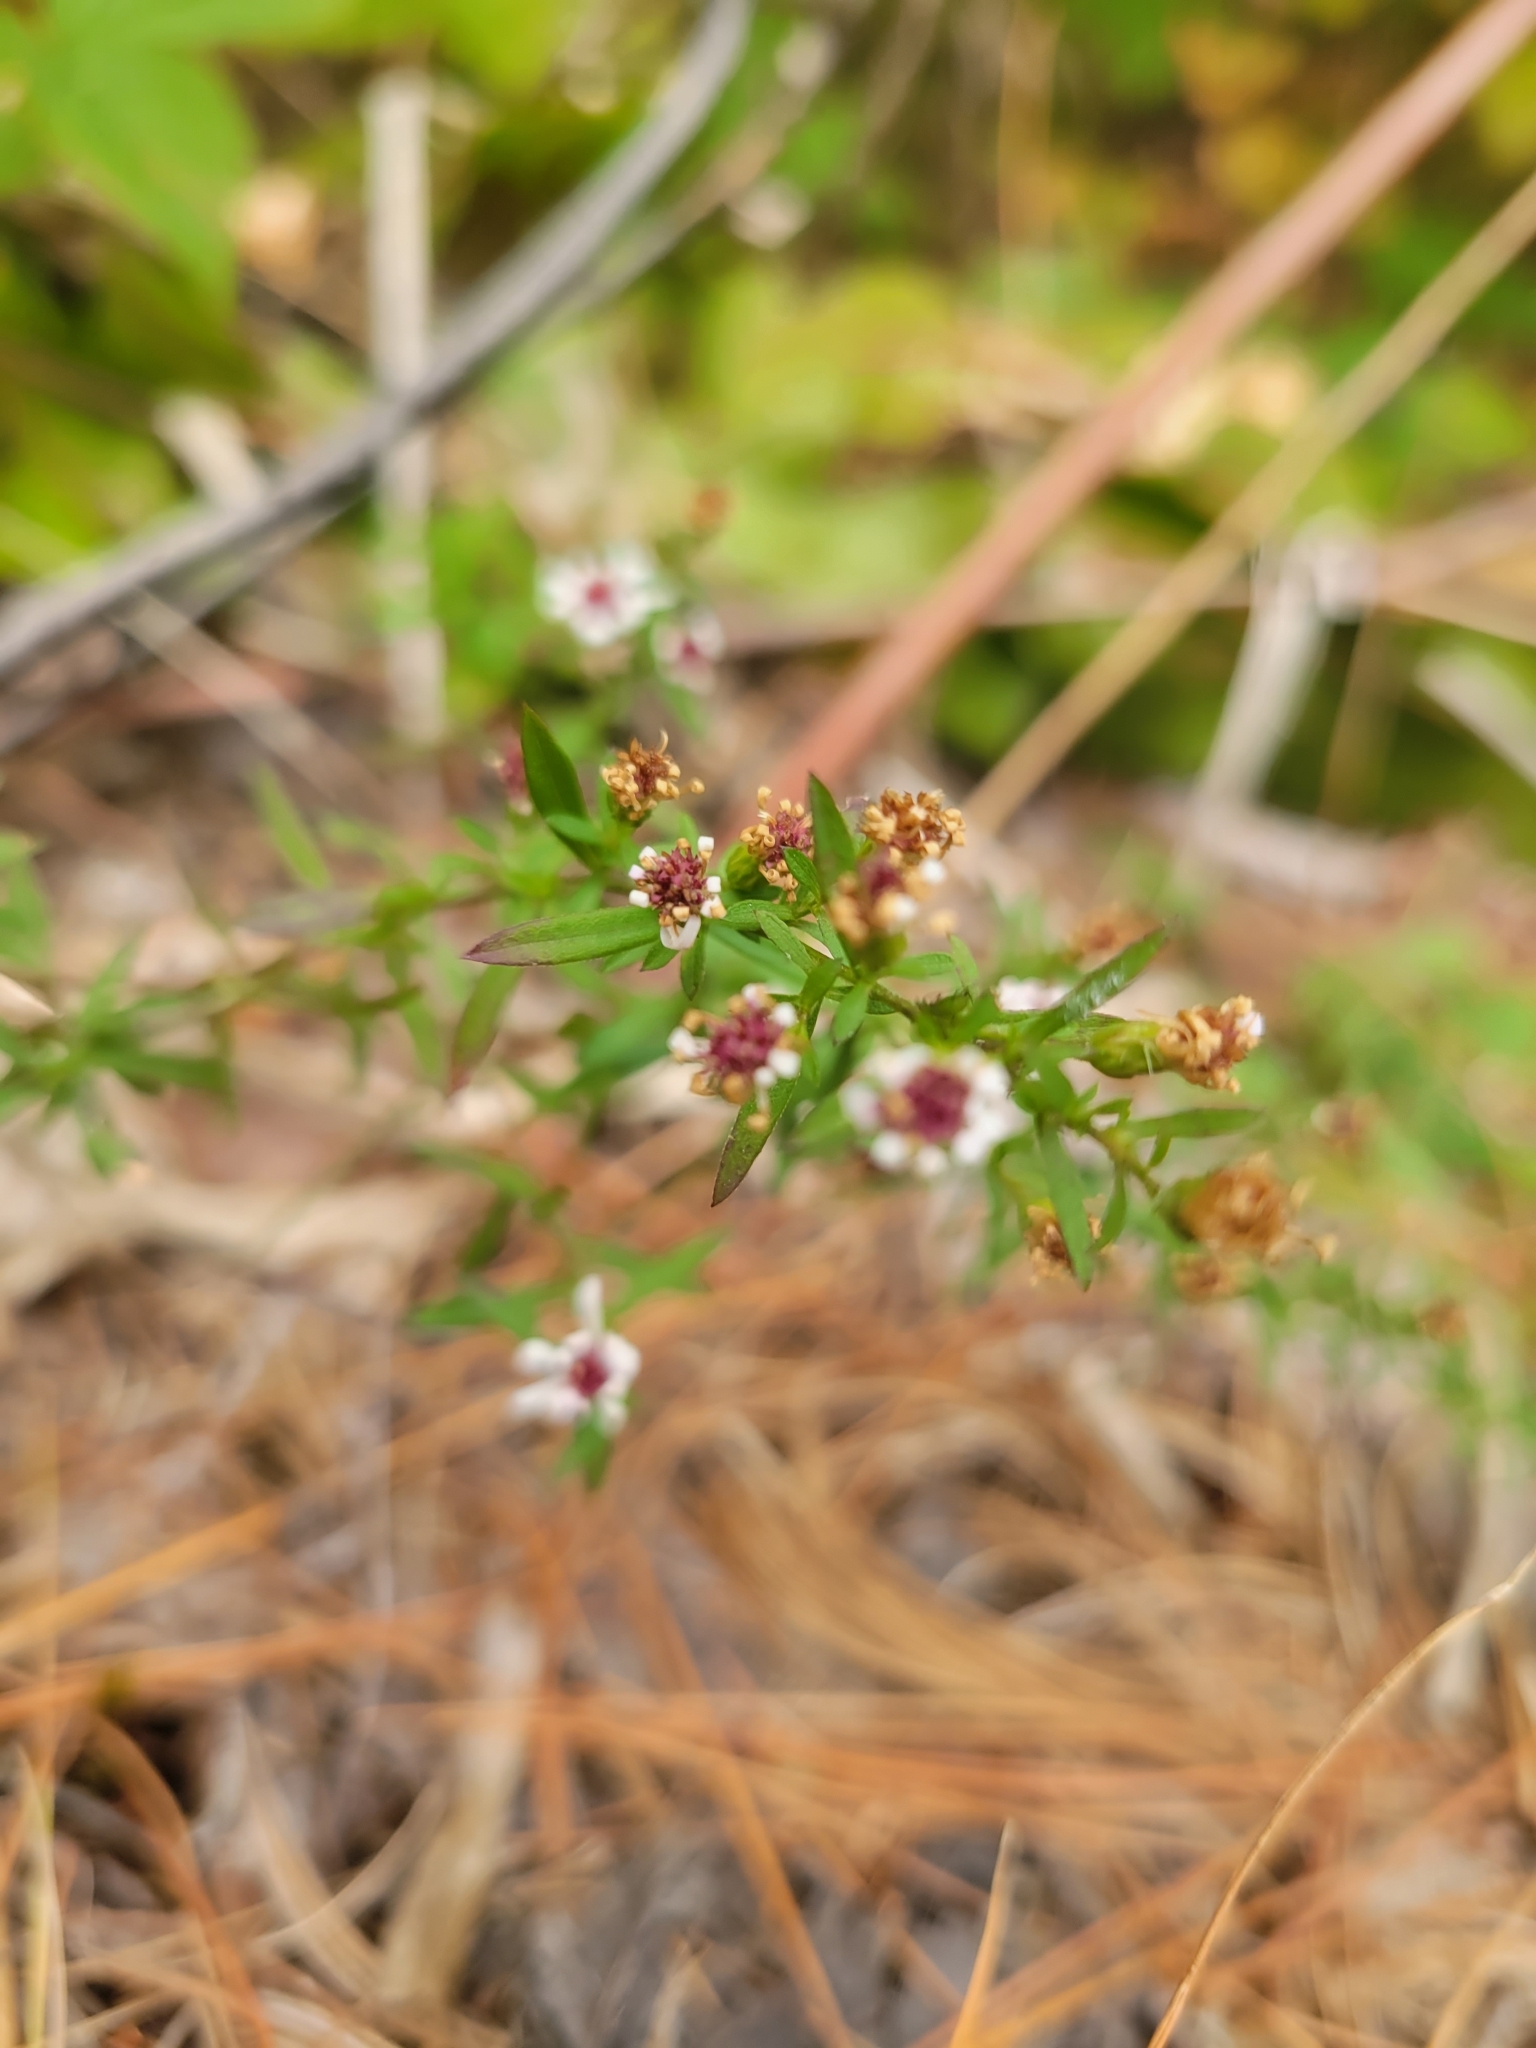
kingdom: Plantae
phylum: Tracheophyta
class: Magnoliopsida
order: Asterales
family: Asteraceae
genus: Symphyotrichum
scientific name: Symphyotrichum lateriflorum
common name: Calico aster
